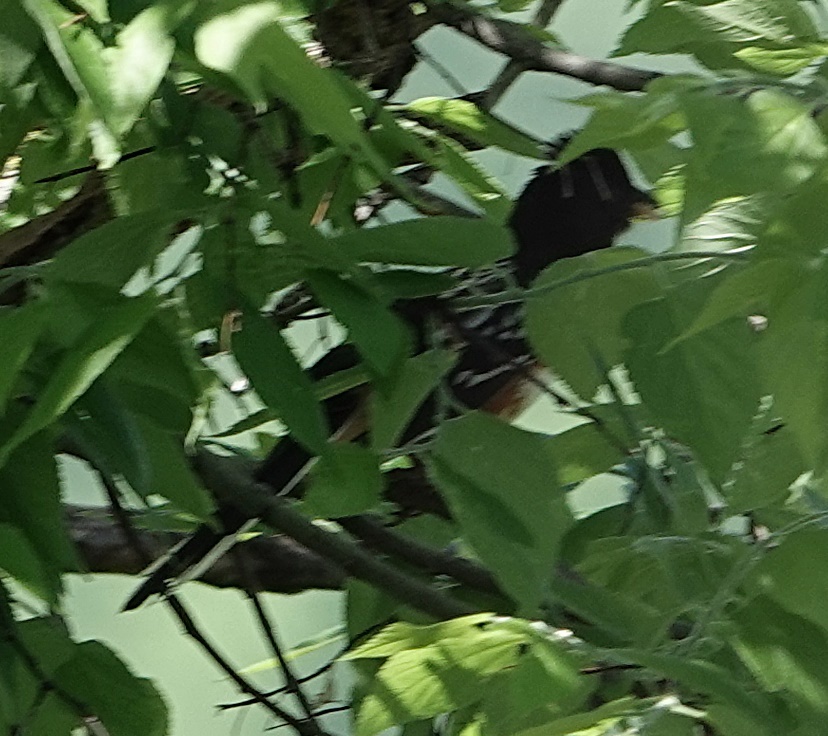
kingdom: Animalia
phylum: Chordata
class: Aves
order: Passeriformes
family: Passerellidae
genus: Pipilo
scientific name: Pipilo maculatus
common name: Spotted towhee
